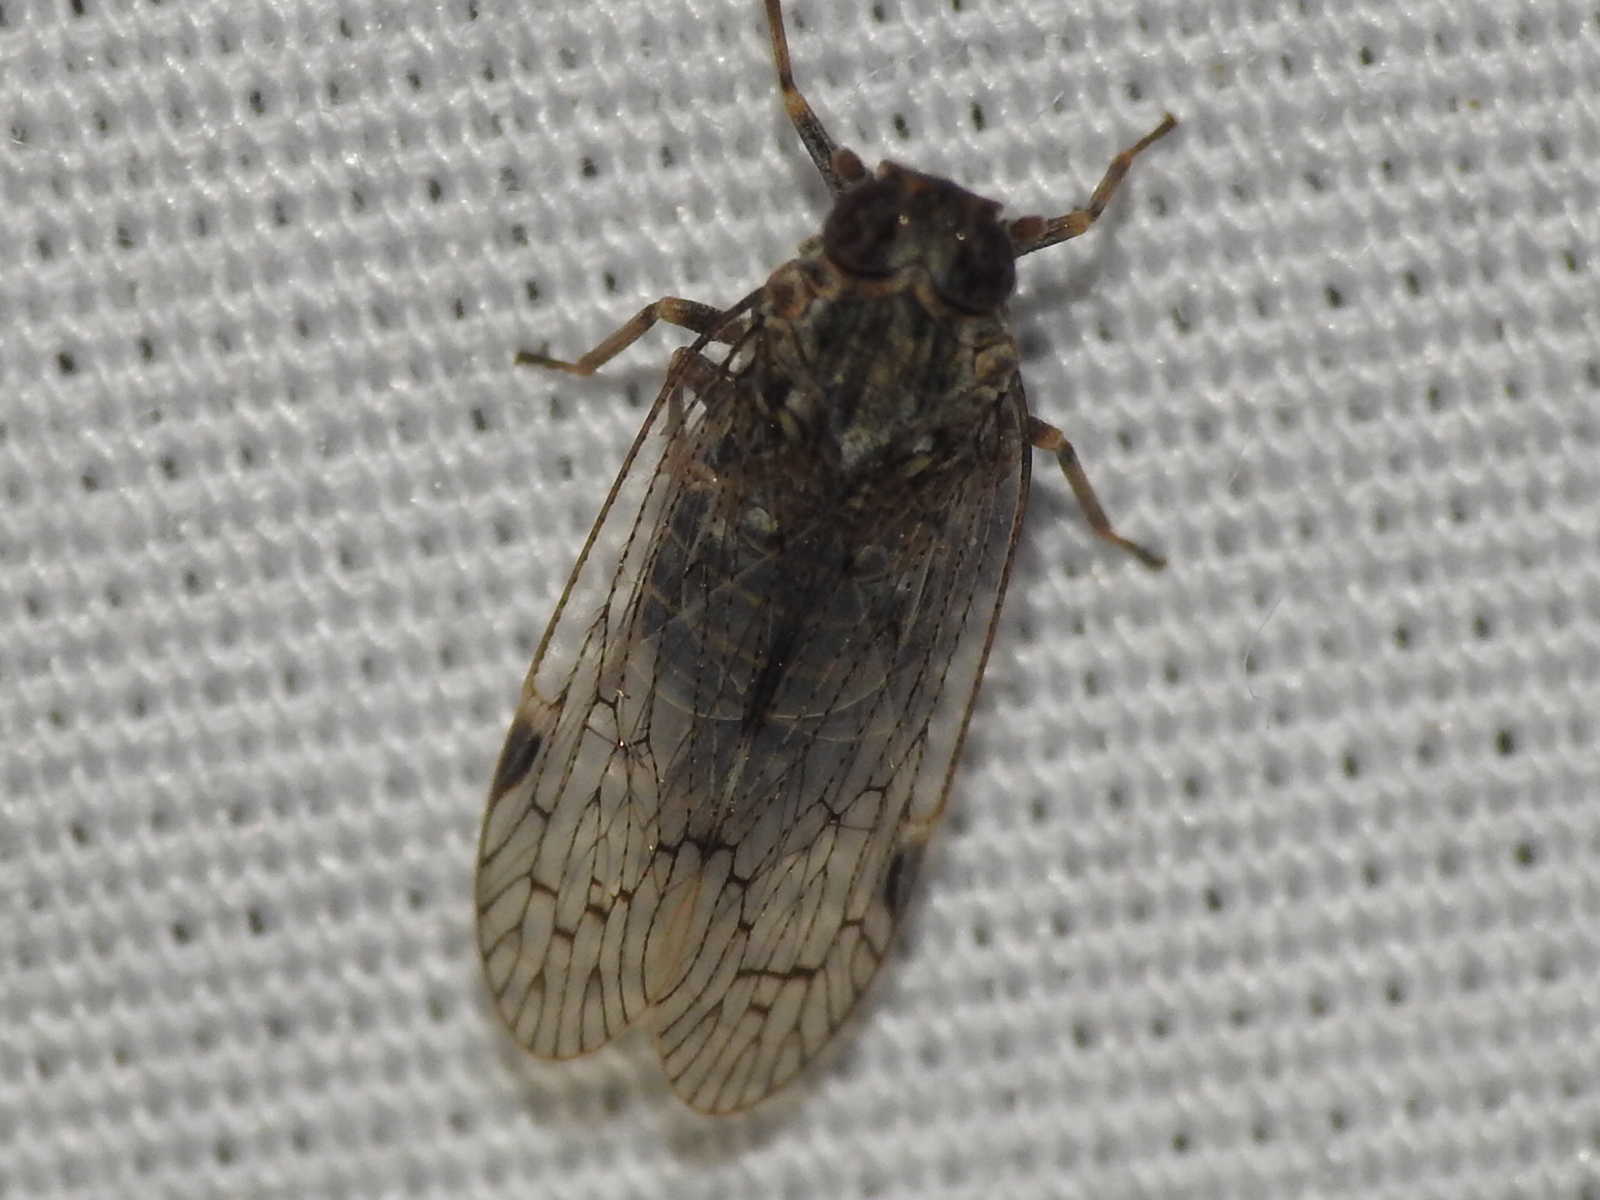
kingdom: Animalia
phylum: Arthropoda
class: Insecta
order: Hemiptera
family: Cixiidae
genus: Melanoliarus
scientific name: Melanoliarus aridus
